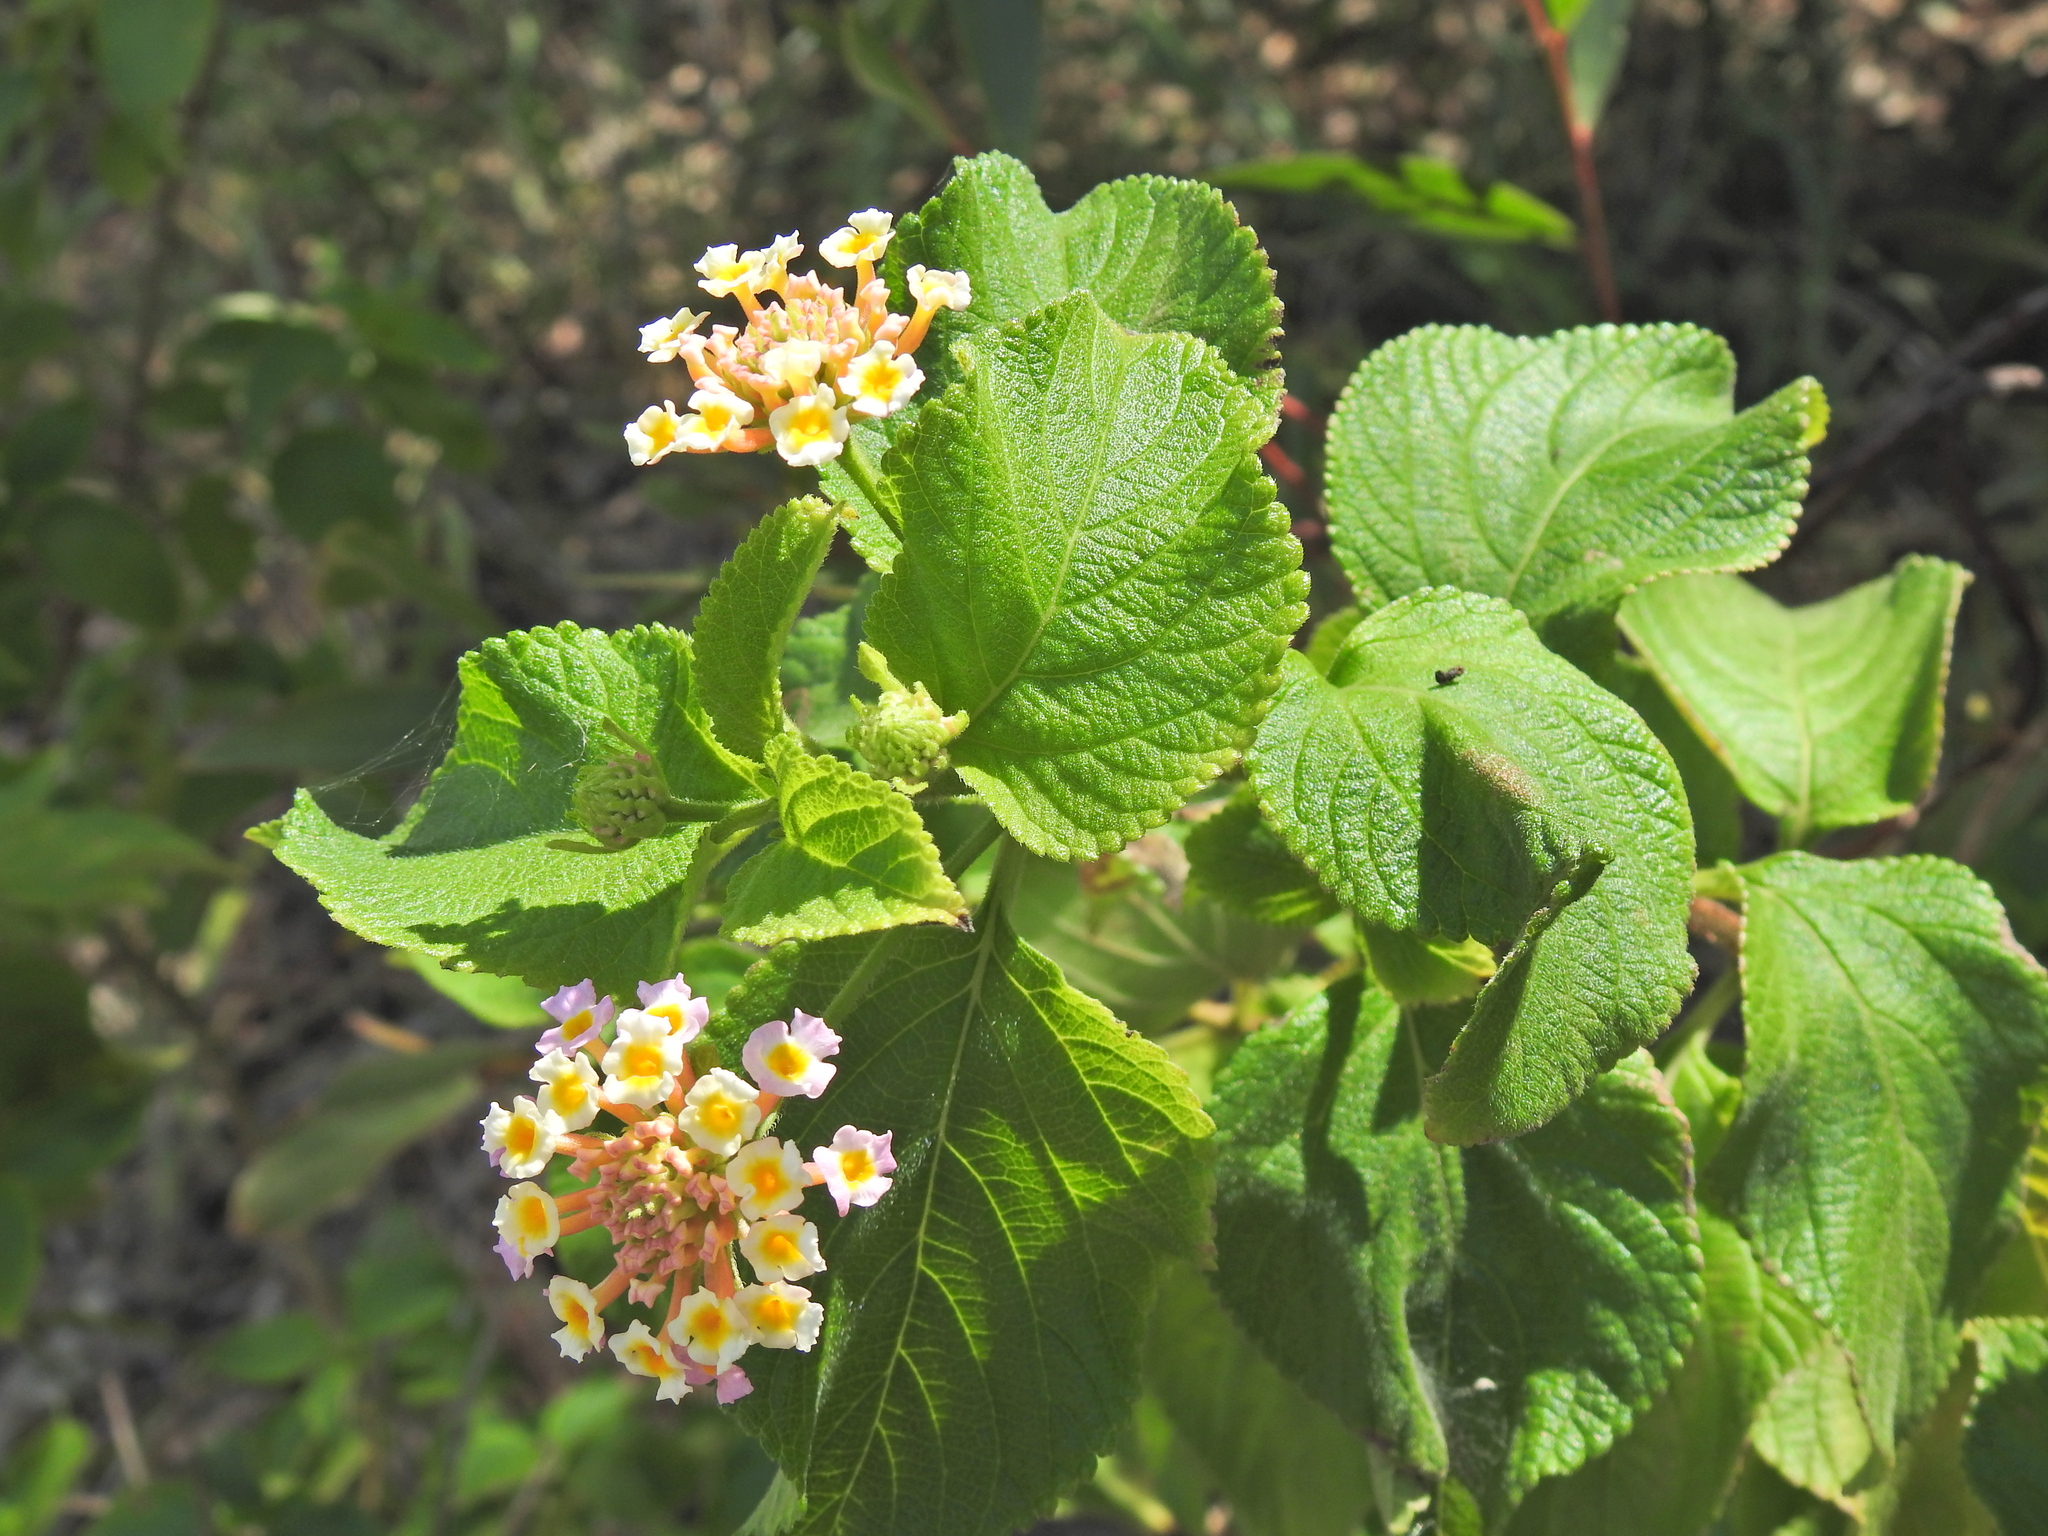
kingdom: Plantae
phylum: Tracheophyta
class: Magnoliopsida
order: Lamiales
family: Verbenaceae
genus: Lantana
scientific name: Lantana camara
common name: Lantana
